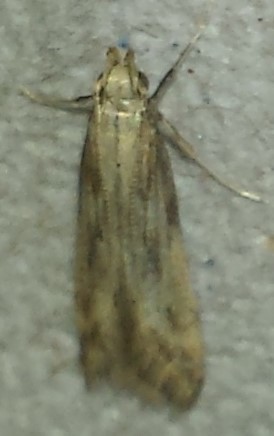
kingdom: Animalia
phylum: Arthropoda
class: Insecta
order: Lepidoptera
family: Gelechiidae
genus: Metzneria
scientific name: Metzneria lappella
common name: Burdock neb
